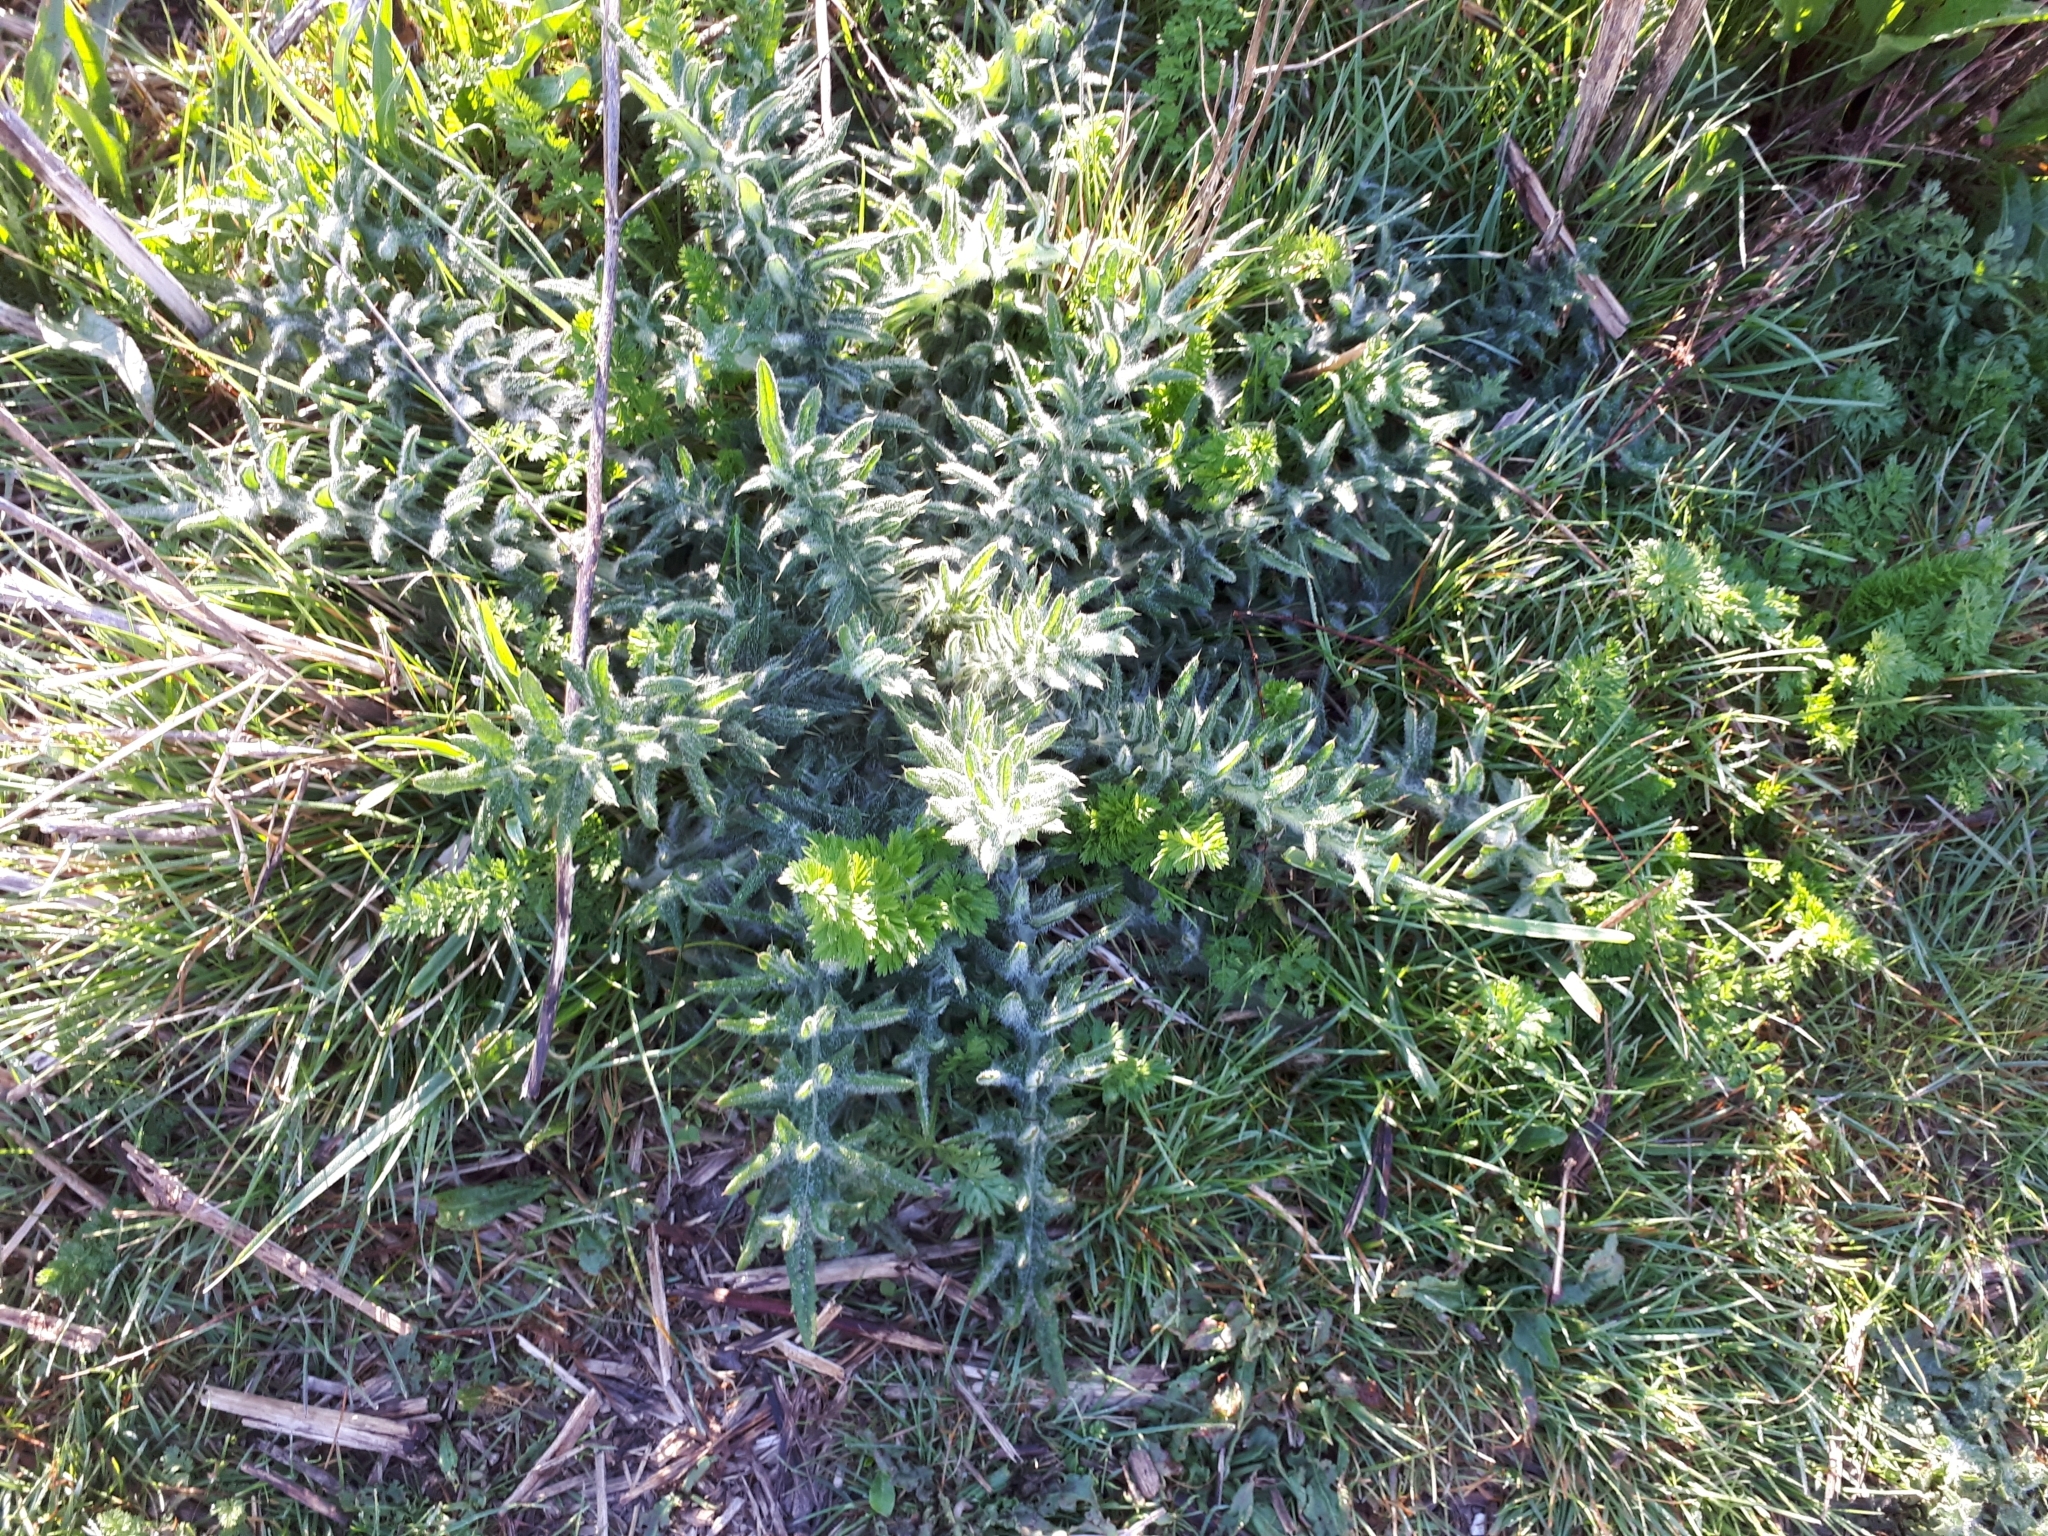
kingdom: Plantae
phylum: Tracheophyta
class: Magnoliopsida
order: Asterales
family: Asteraceae
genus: Cirsium
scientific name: Cirsium vulgare
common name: Bull thistle
